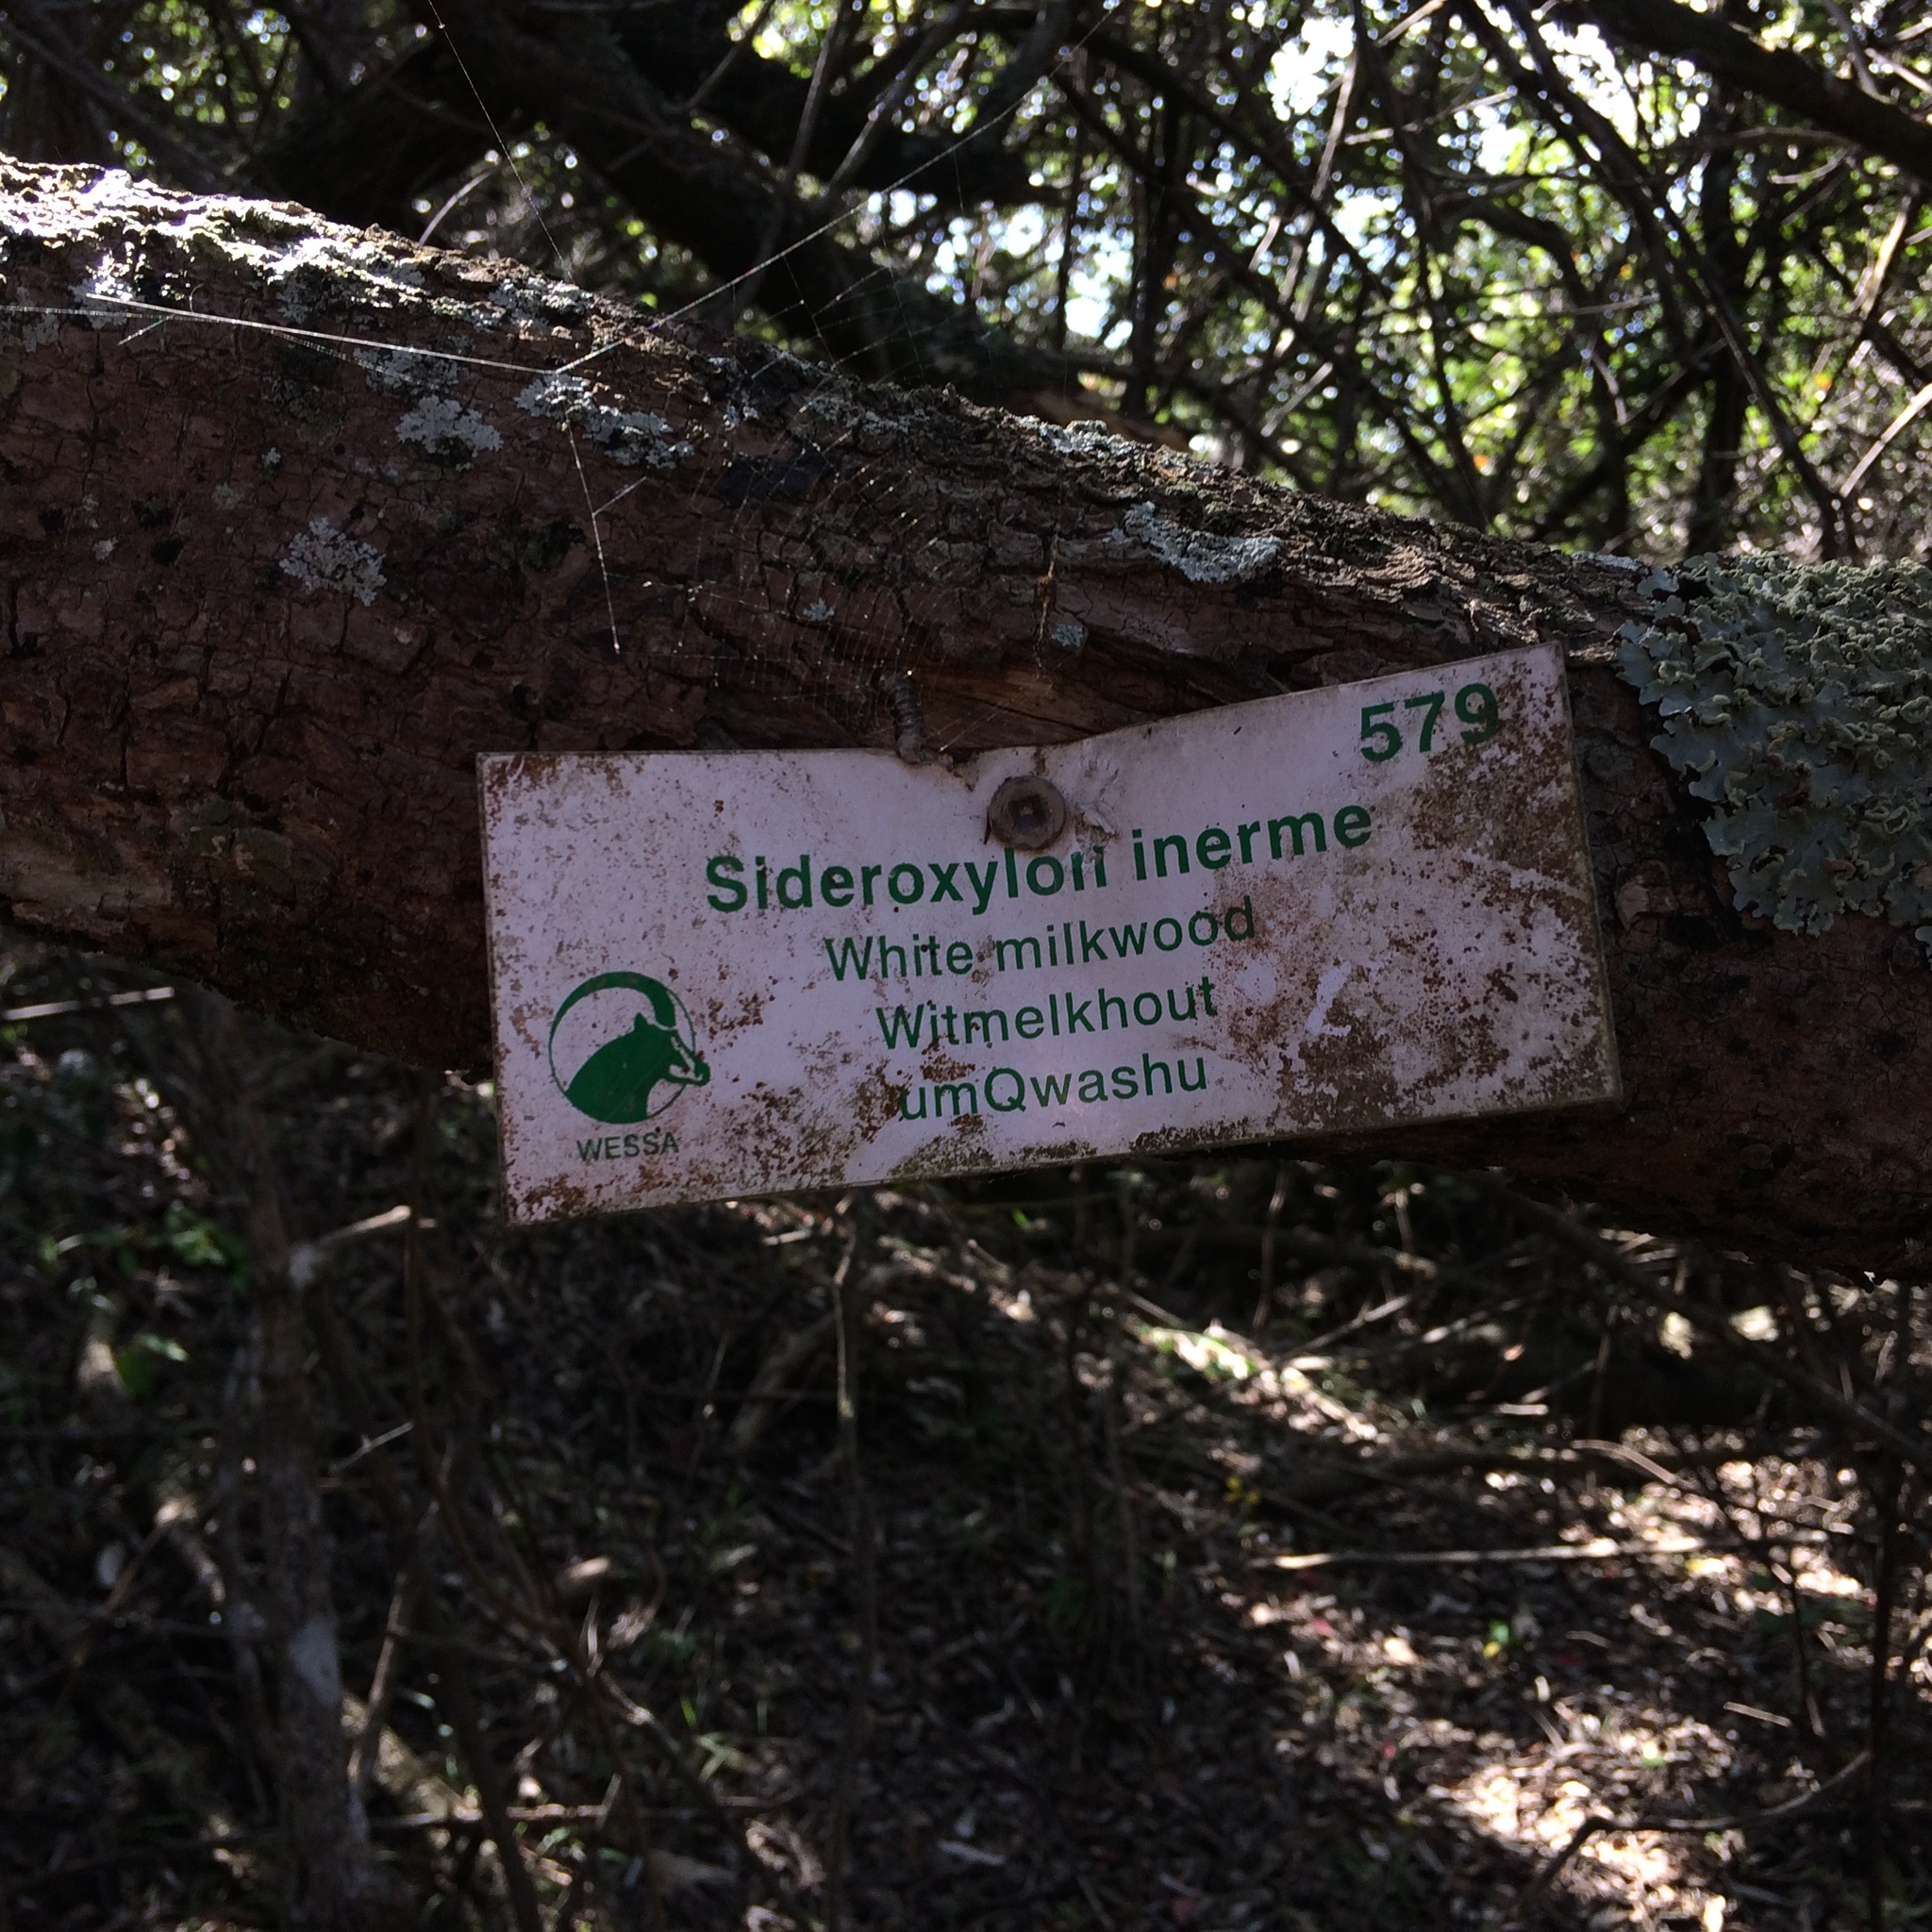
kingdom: Plantae
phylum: Tracheophyta
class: Magnoliopsida
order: Ericales
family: Sapotaceae
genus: Sideroxylon
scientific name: Sideroxylon inerme
